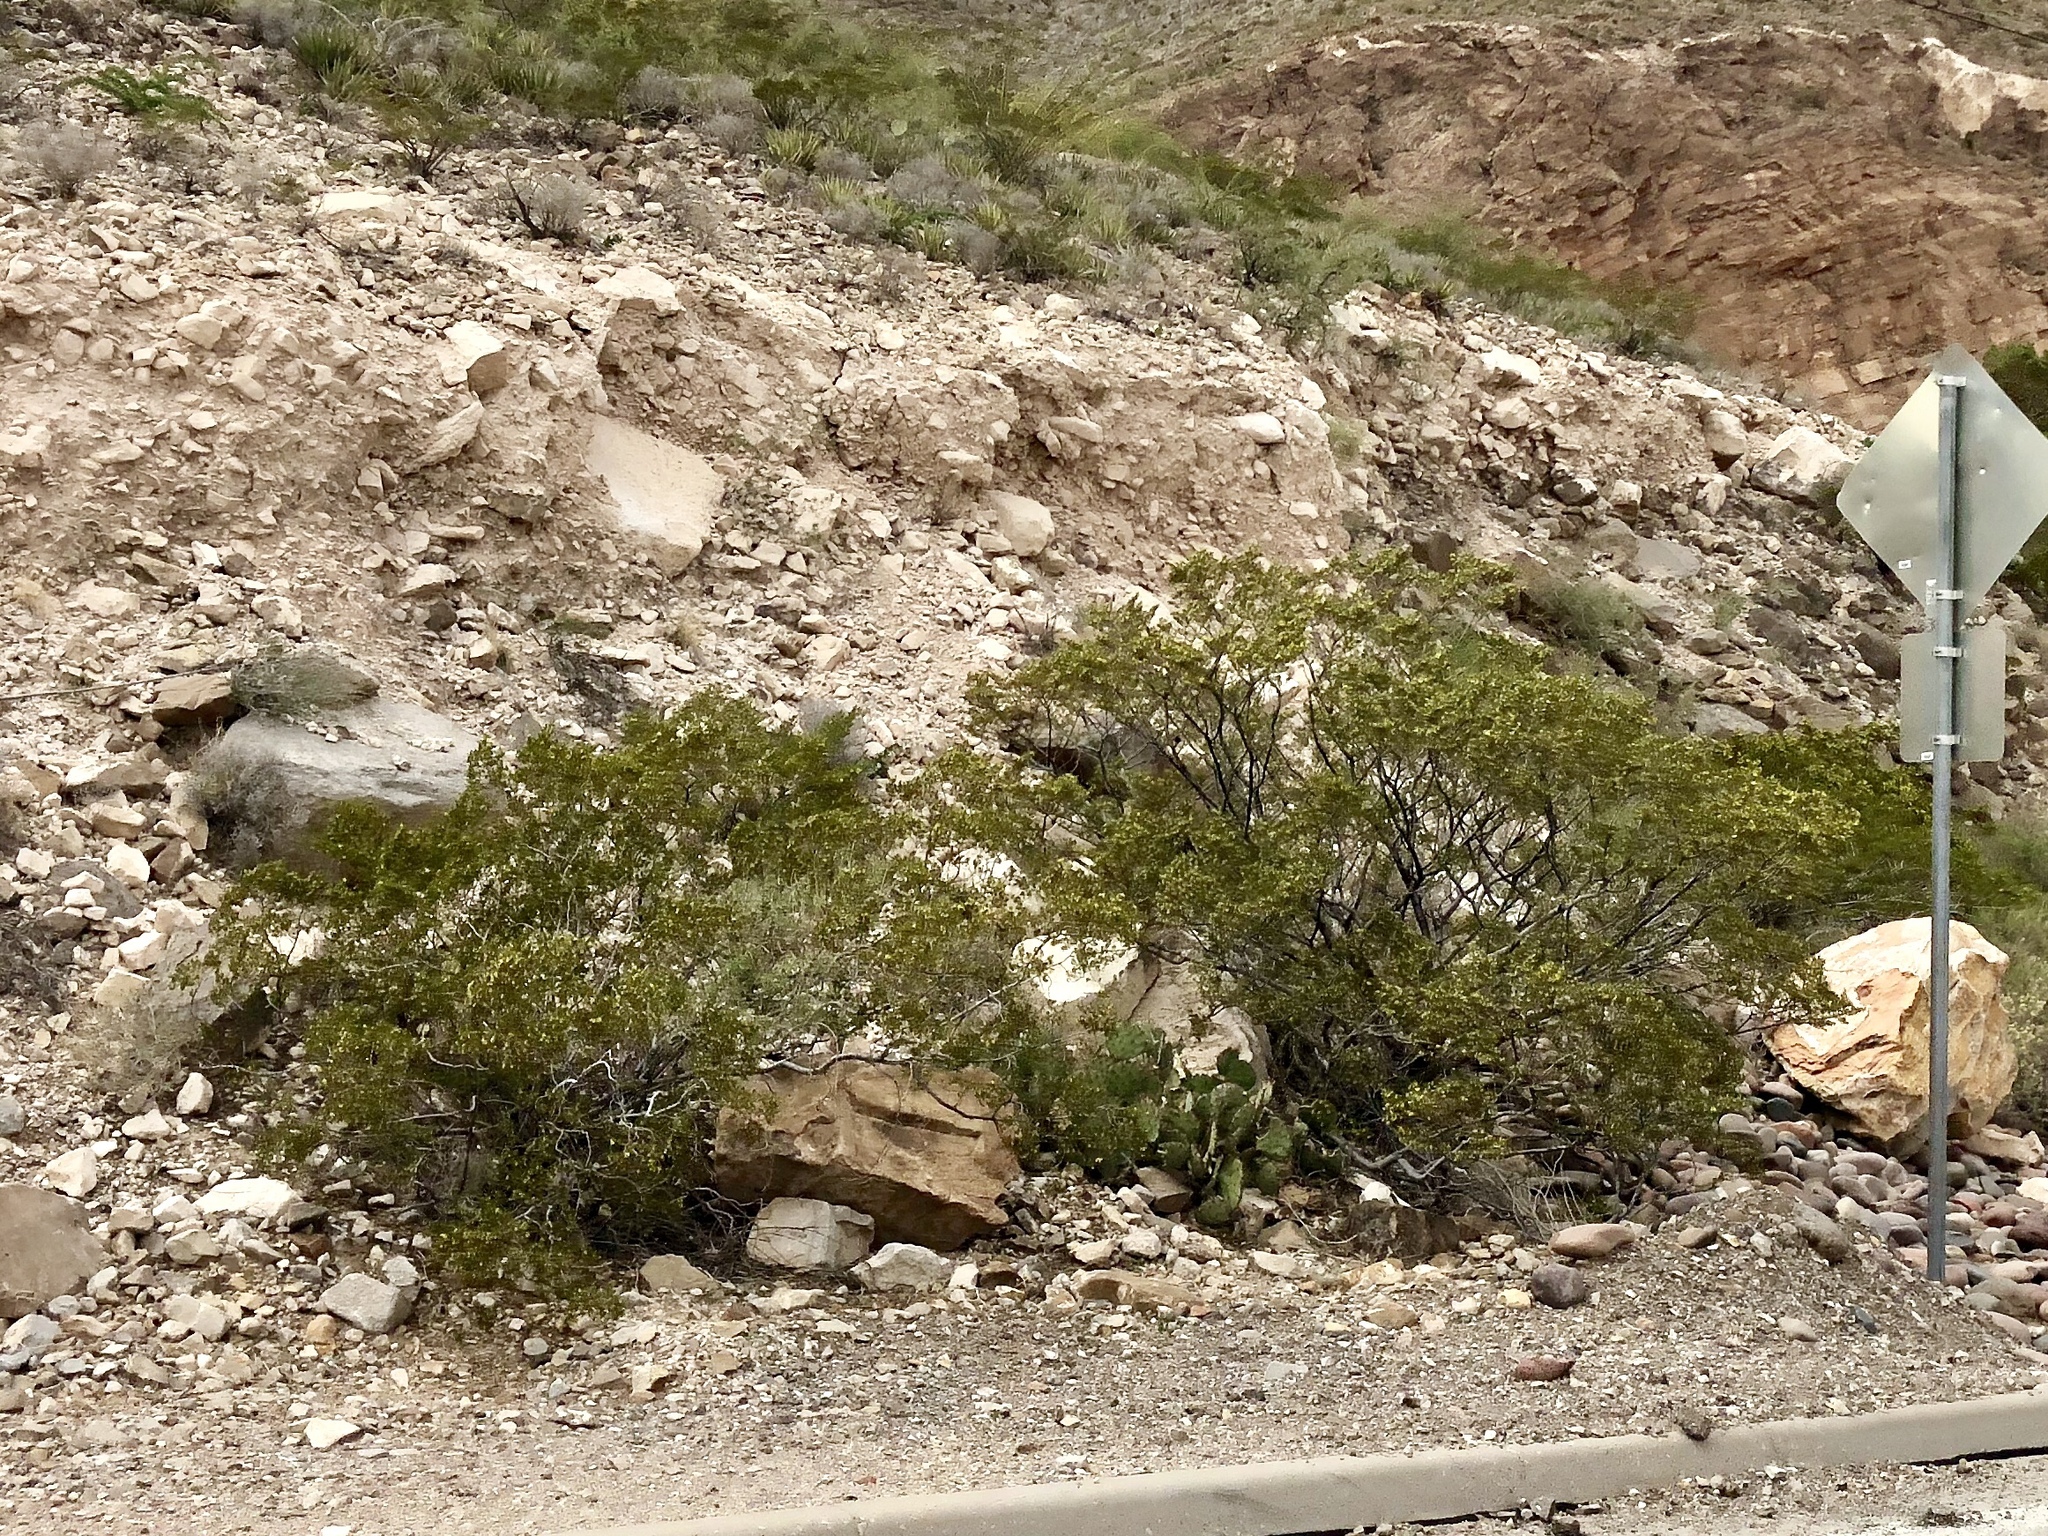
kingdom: Plantae
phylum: Tracheophyta
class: Magnoliopsida
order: Zygophyllales
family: Zygophyllaceae
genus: Larrea
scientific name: Larrea tridentata
